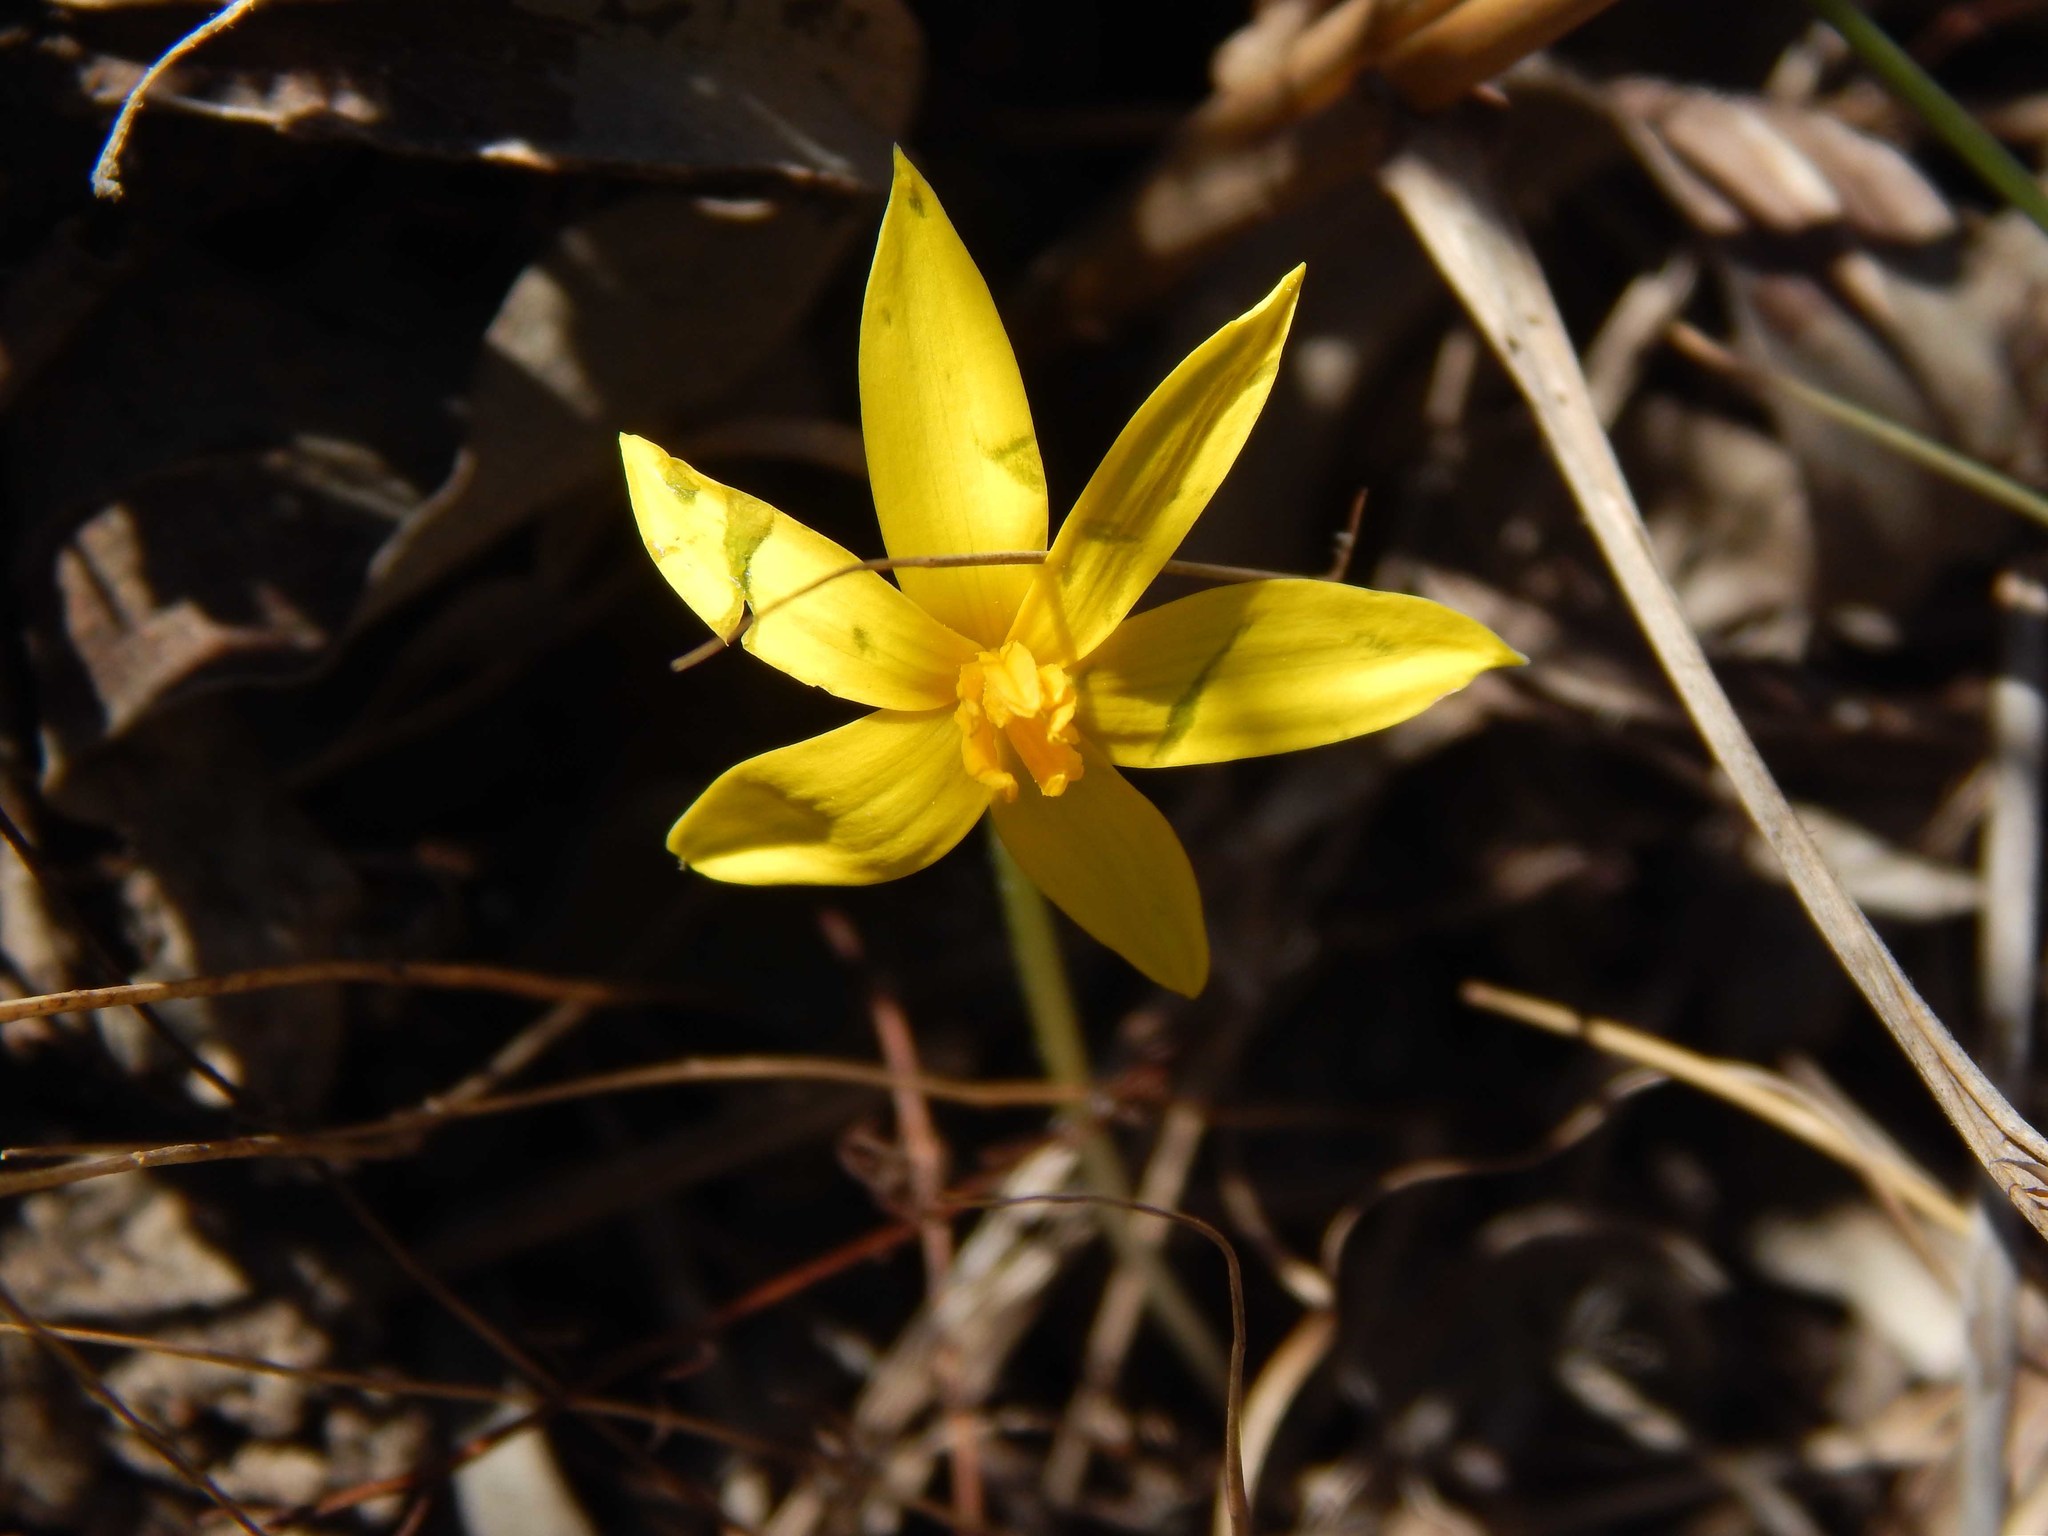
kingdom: Plantae
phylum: Tracheophyta
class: Liliopsida
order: Asparagales
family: Hypoxidaceae
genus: Empodium
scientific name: Empodium plicatum
